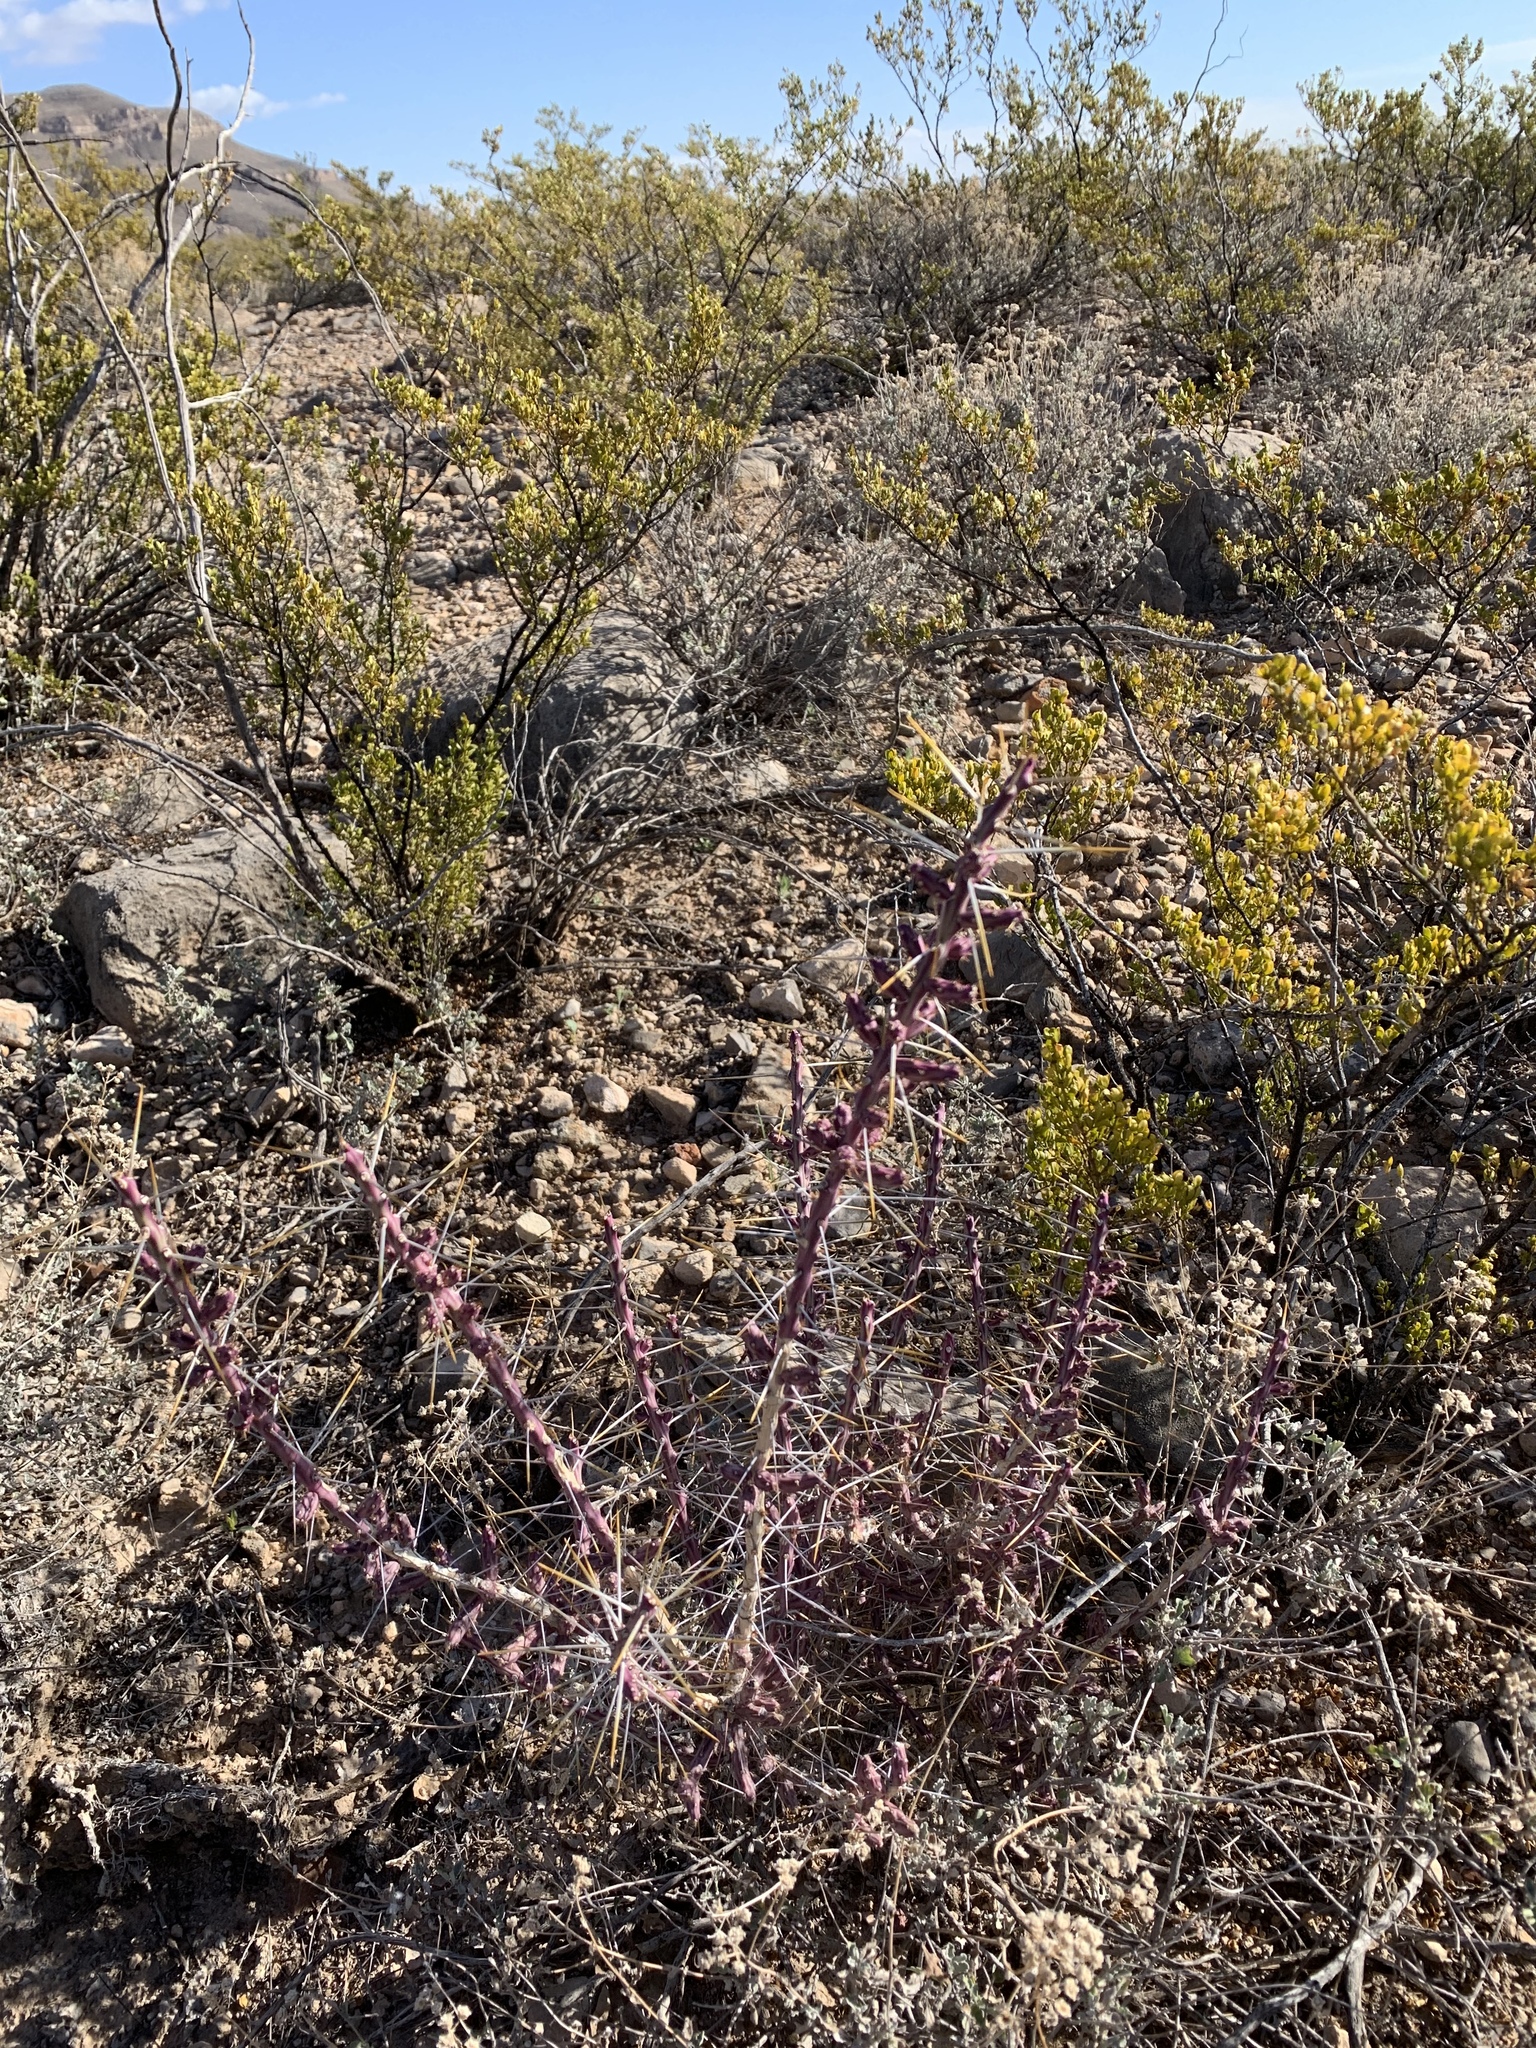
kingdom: Plantae
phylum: Tracheophyta
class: Magnoliopsida
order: Caryophyllales
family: Cactaceae
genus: Cylindropuntia
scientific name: Cylindropuntia leptocaulis
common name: Christmas cactus
